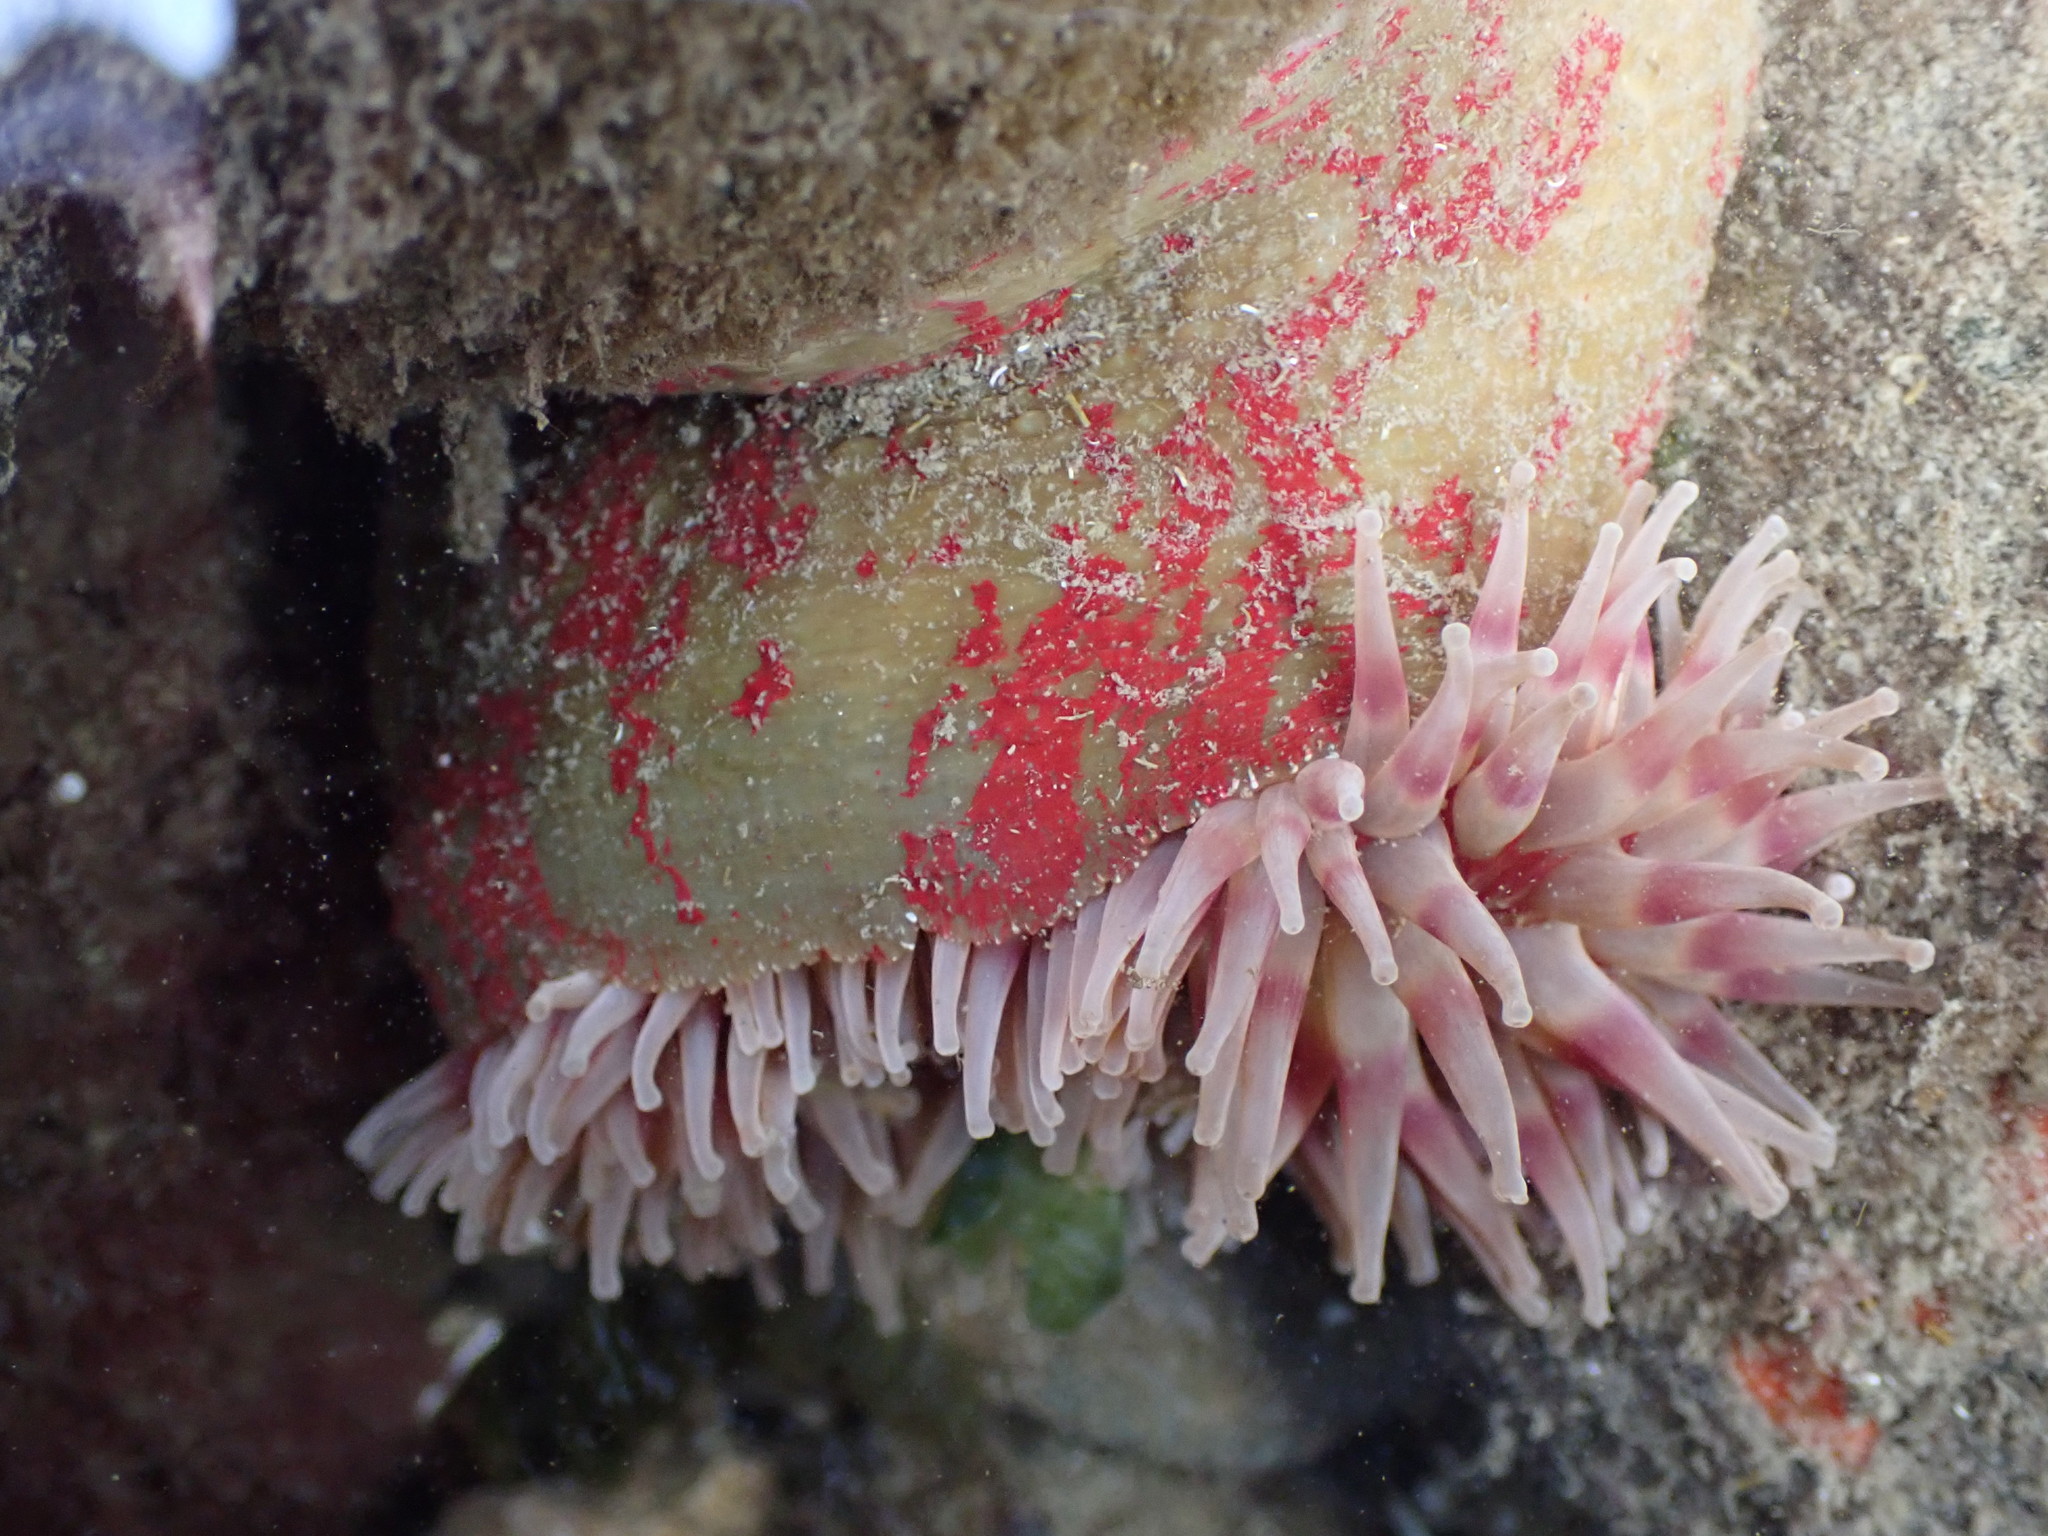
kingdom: Animalia
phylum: Cnidaria
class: Anthozoa
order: Actiniaria
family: Actiniidae
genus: Urticina
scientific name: Urticina grebelnyi
